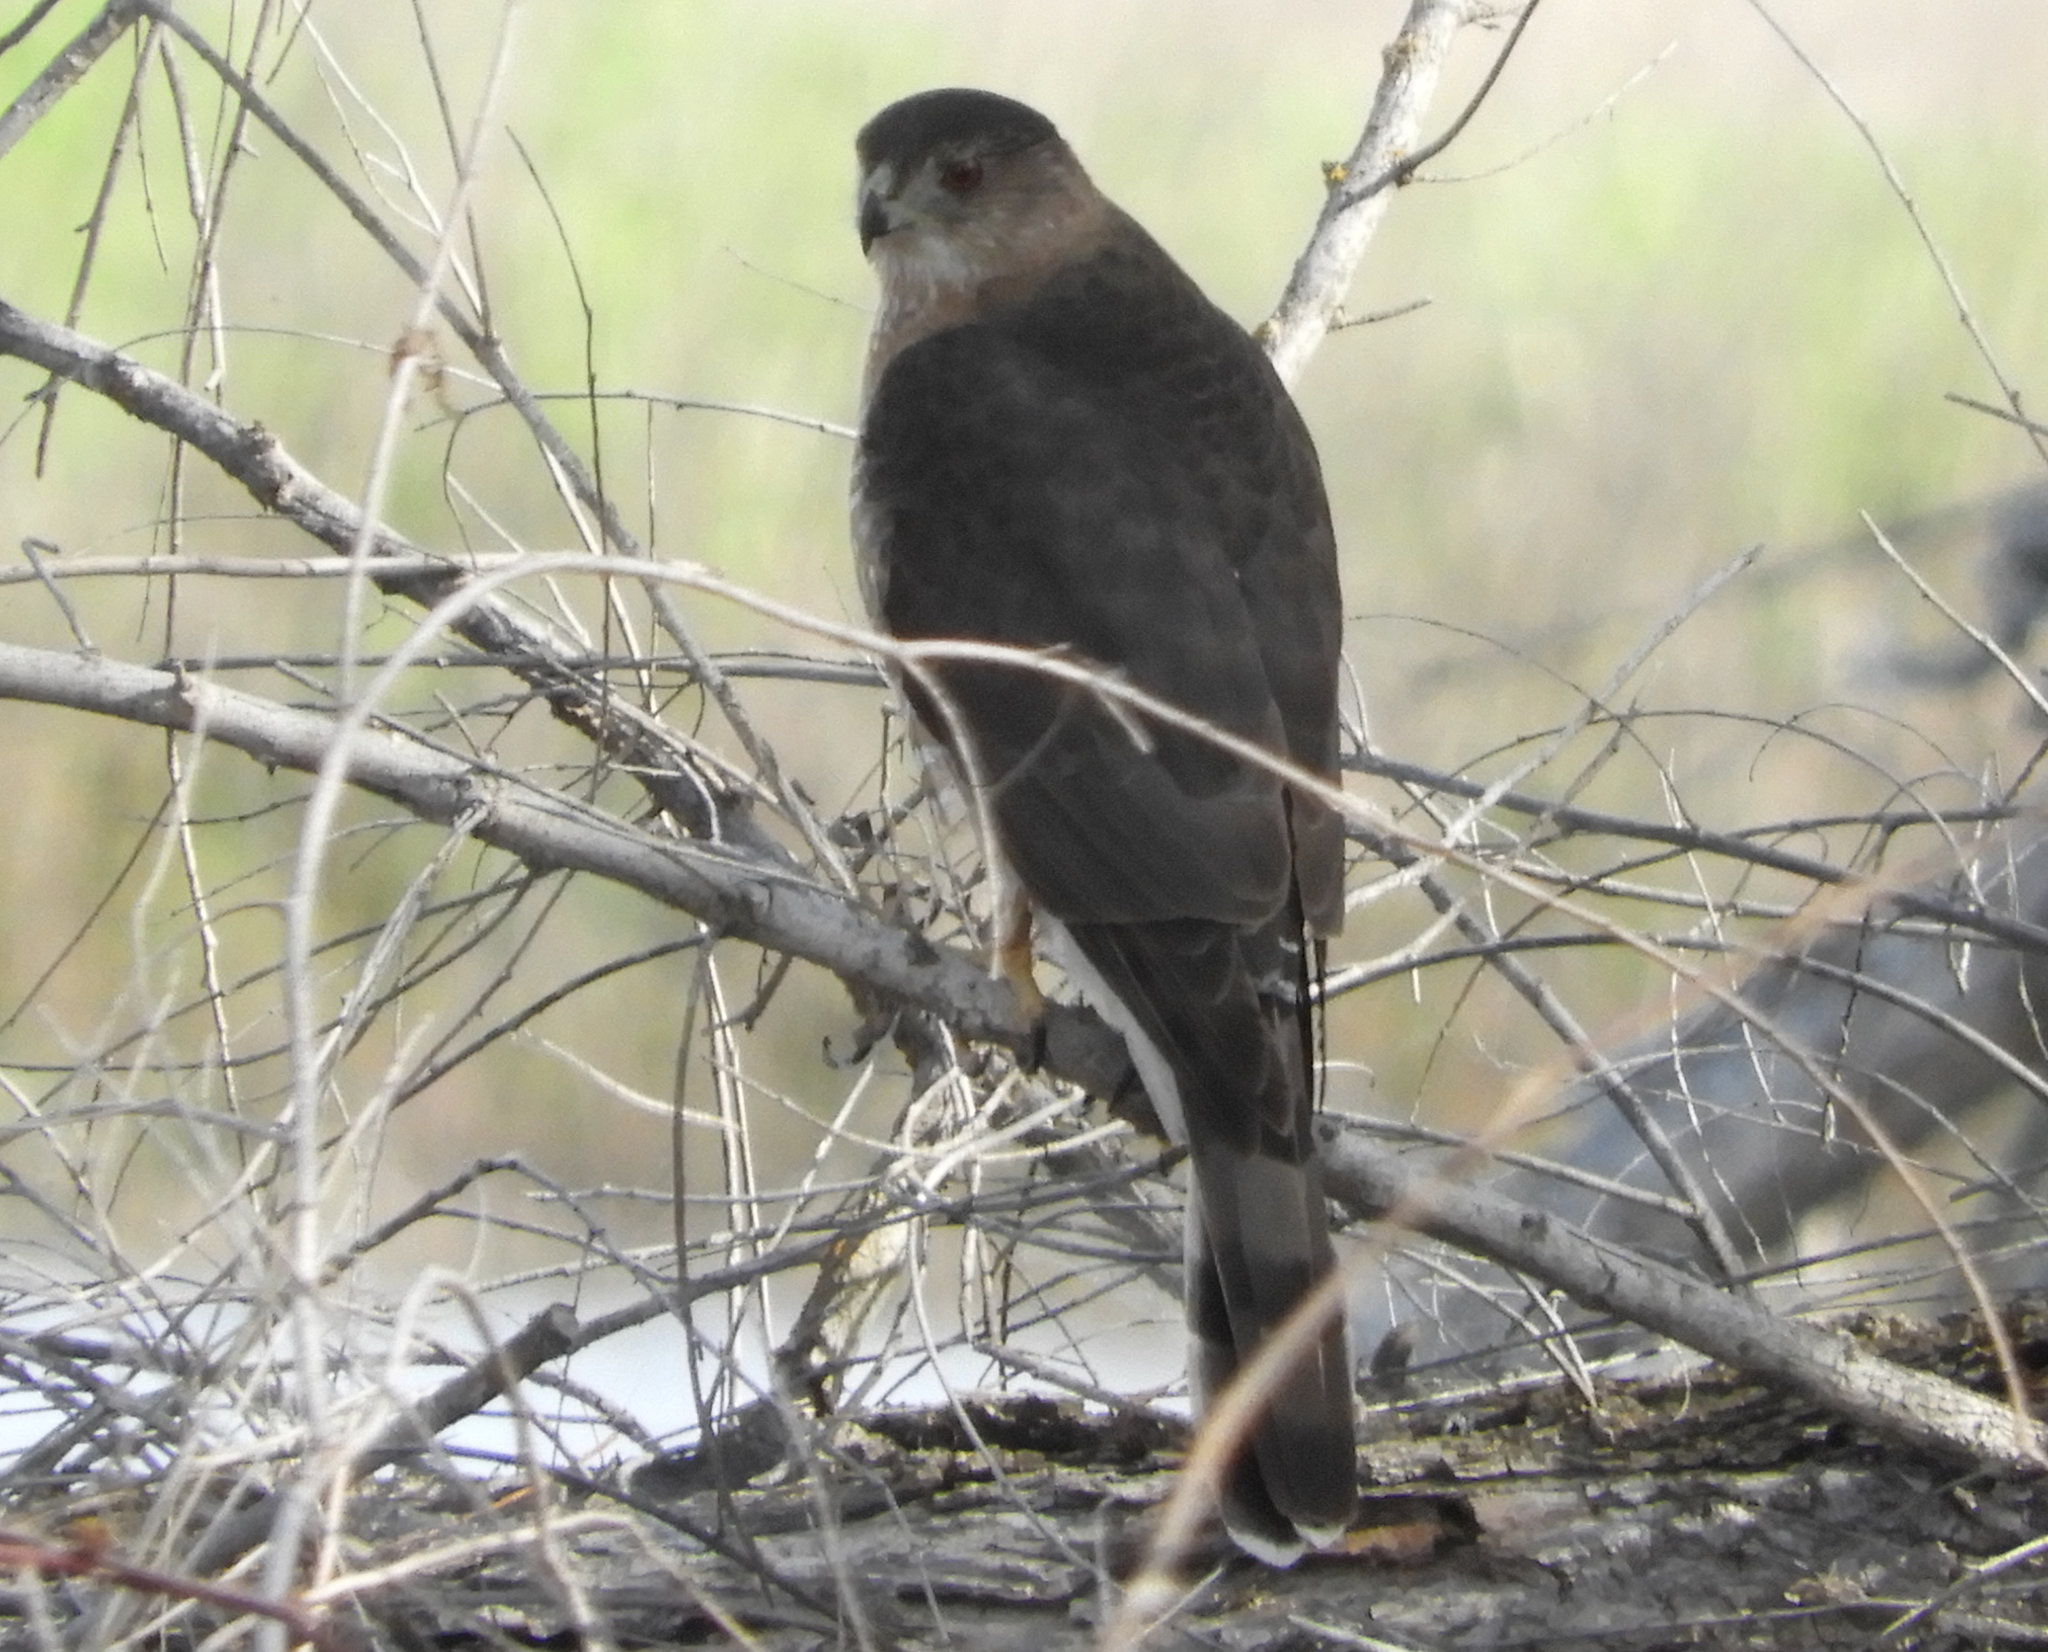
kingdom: Animalia
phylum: Chordata
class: Aves
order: Accipitriformes
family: Accipitridae
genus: Accipiter
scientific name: Accipiter cooperii
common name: Cooper's hawk
